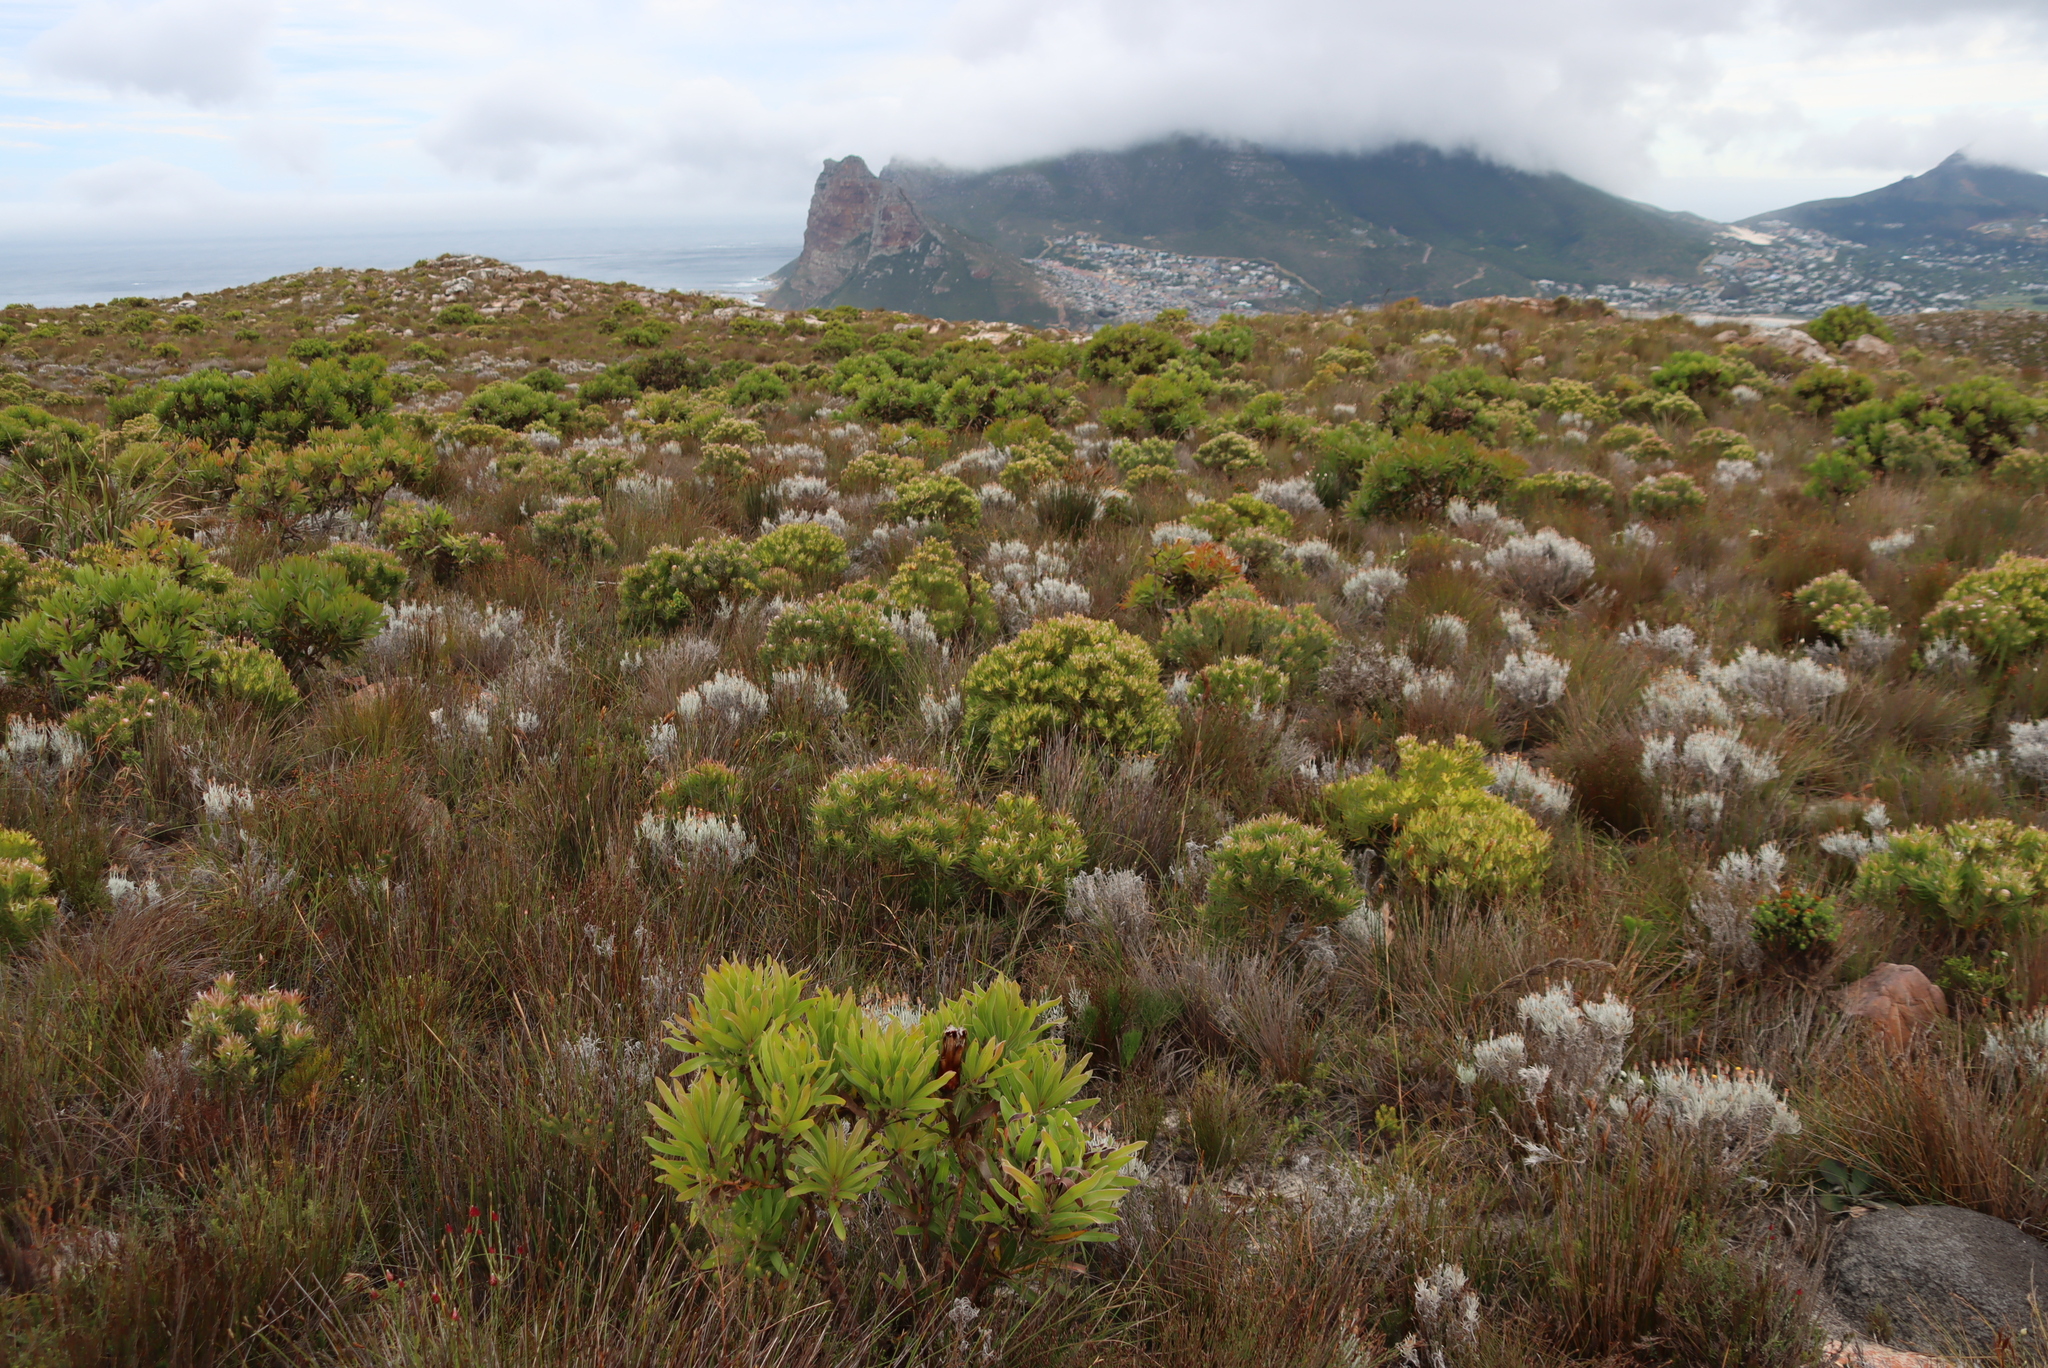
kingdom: Plantae
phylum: Tracheophyta
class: Magnoliopsida
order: Proteales
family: Proteaceae
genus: Leucadendron
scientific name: Leucadendron xanthoconus
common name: Sickle-leaf conebush
